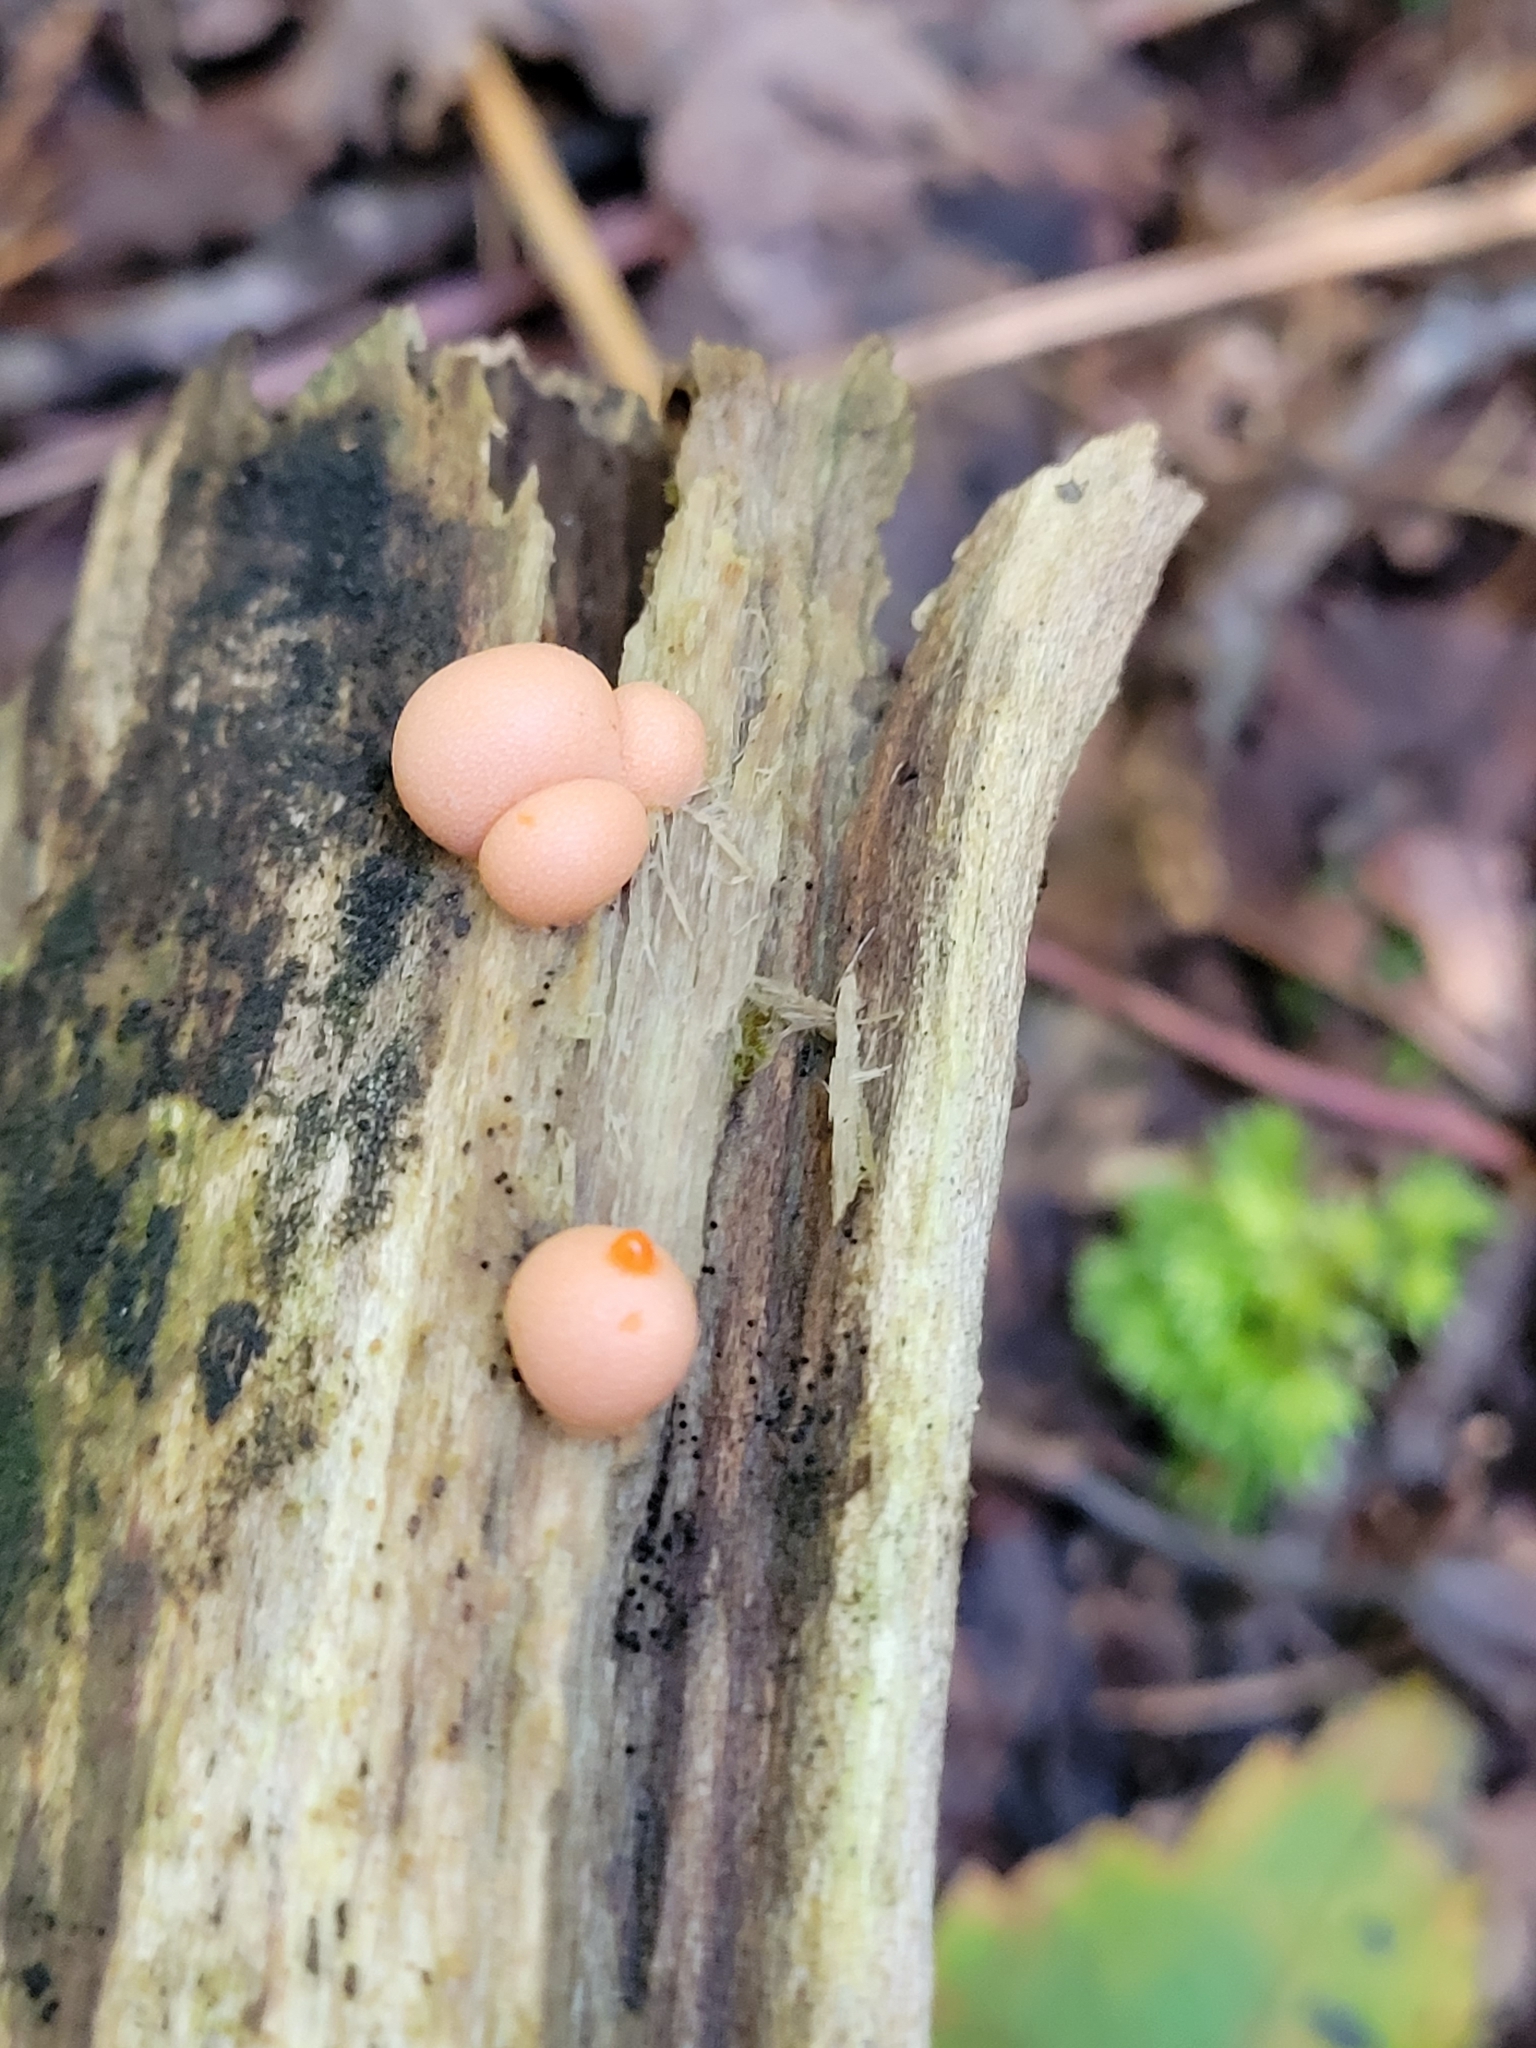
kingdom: Protozoa
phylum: Mycetozoa
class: Myxomycetes
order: Cribrariales
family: Tubiferaceae
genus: Lycogala
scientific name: Lycogala epidendrum
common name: Wolf's milk
